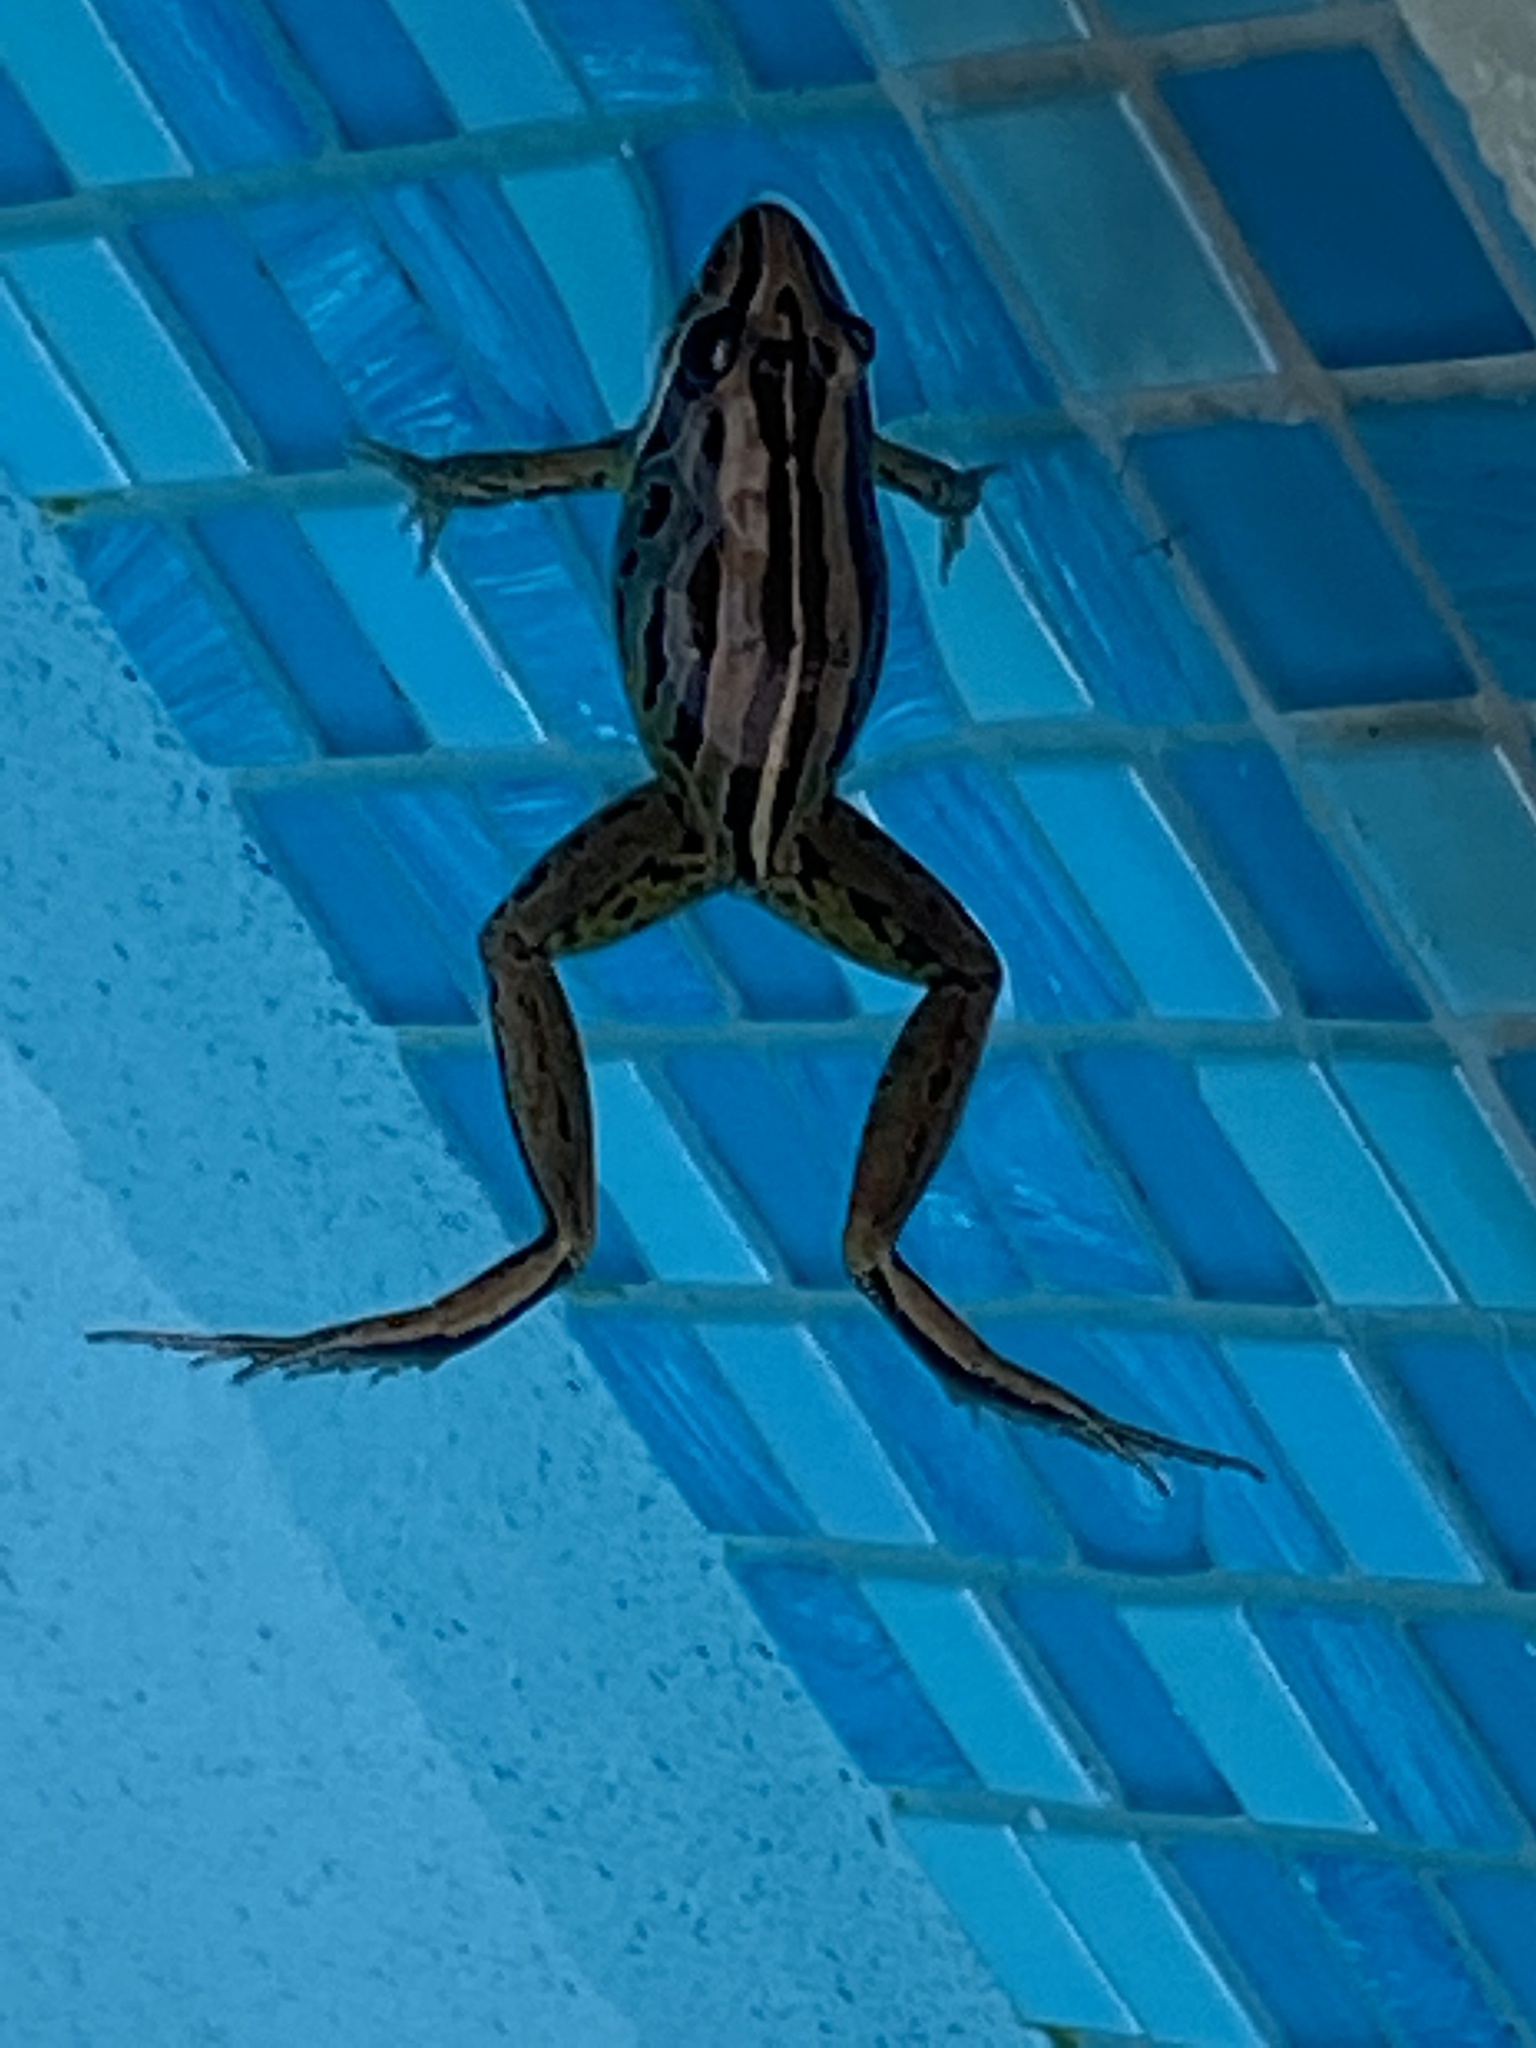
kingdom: Animalia
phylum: Chordata
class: Amphibia
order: Anura
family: Limnodynastidae
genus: Limnodynastes
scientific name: Limnodynastes peronii
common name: Brown frog
